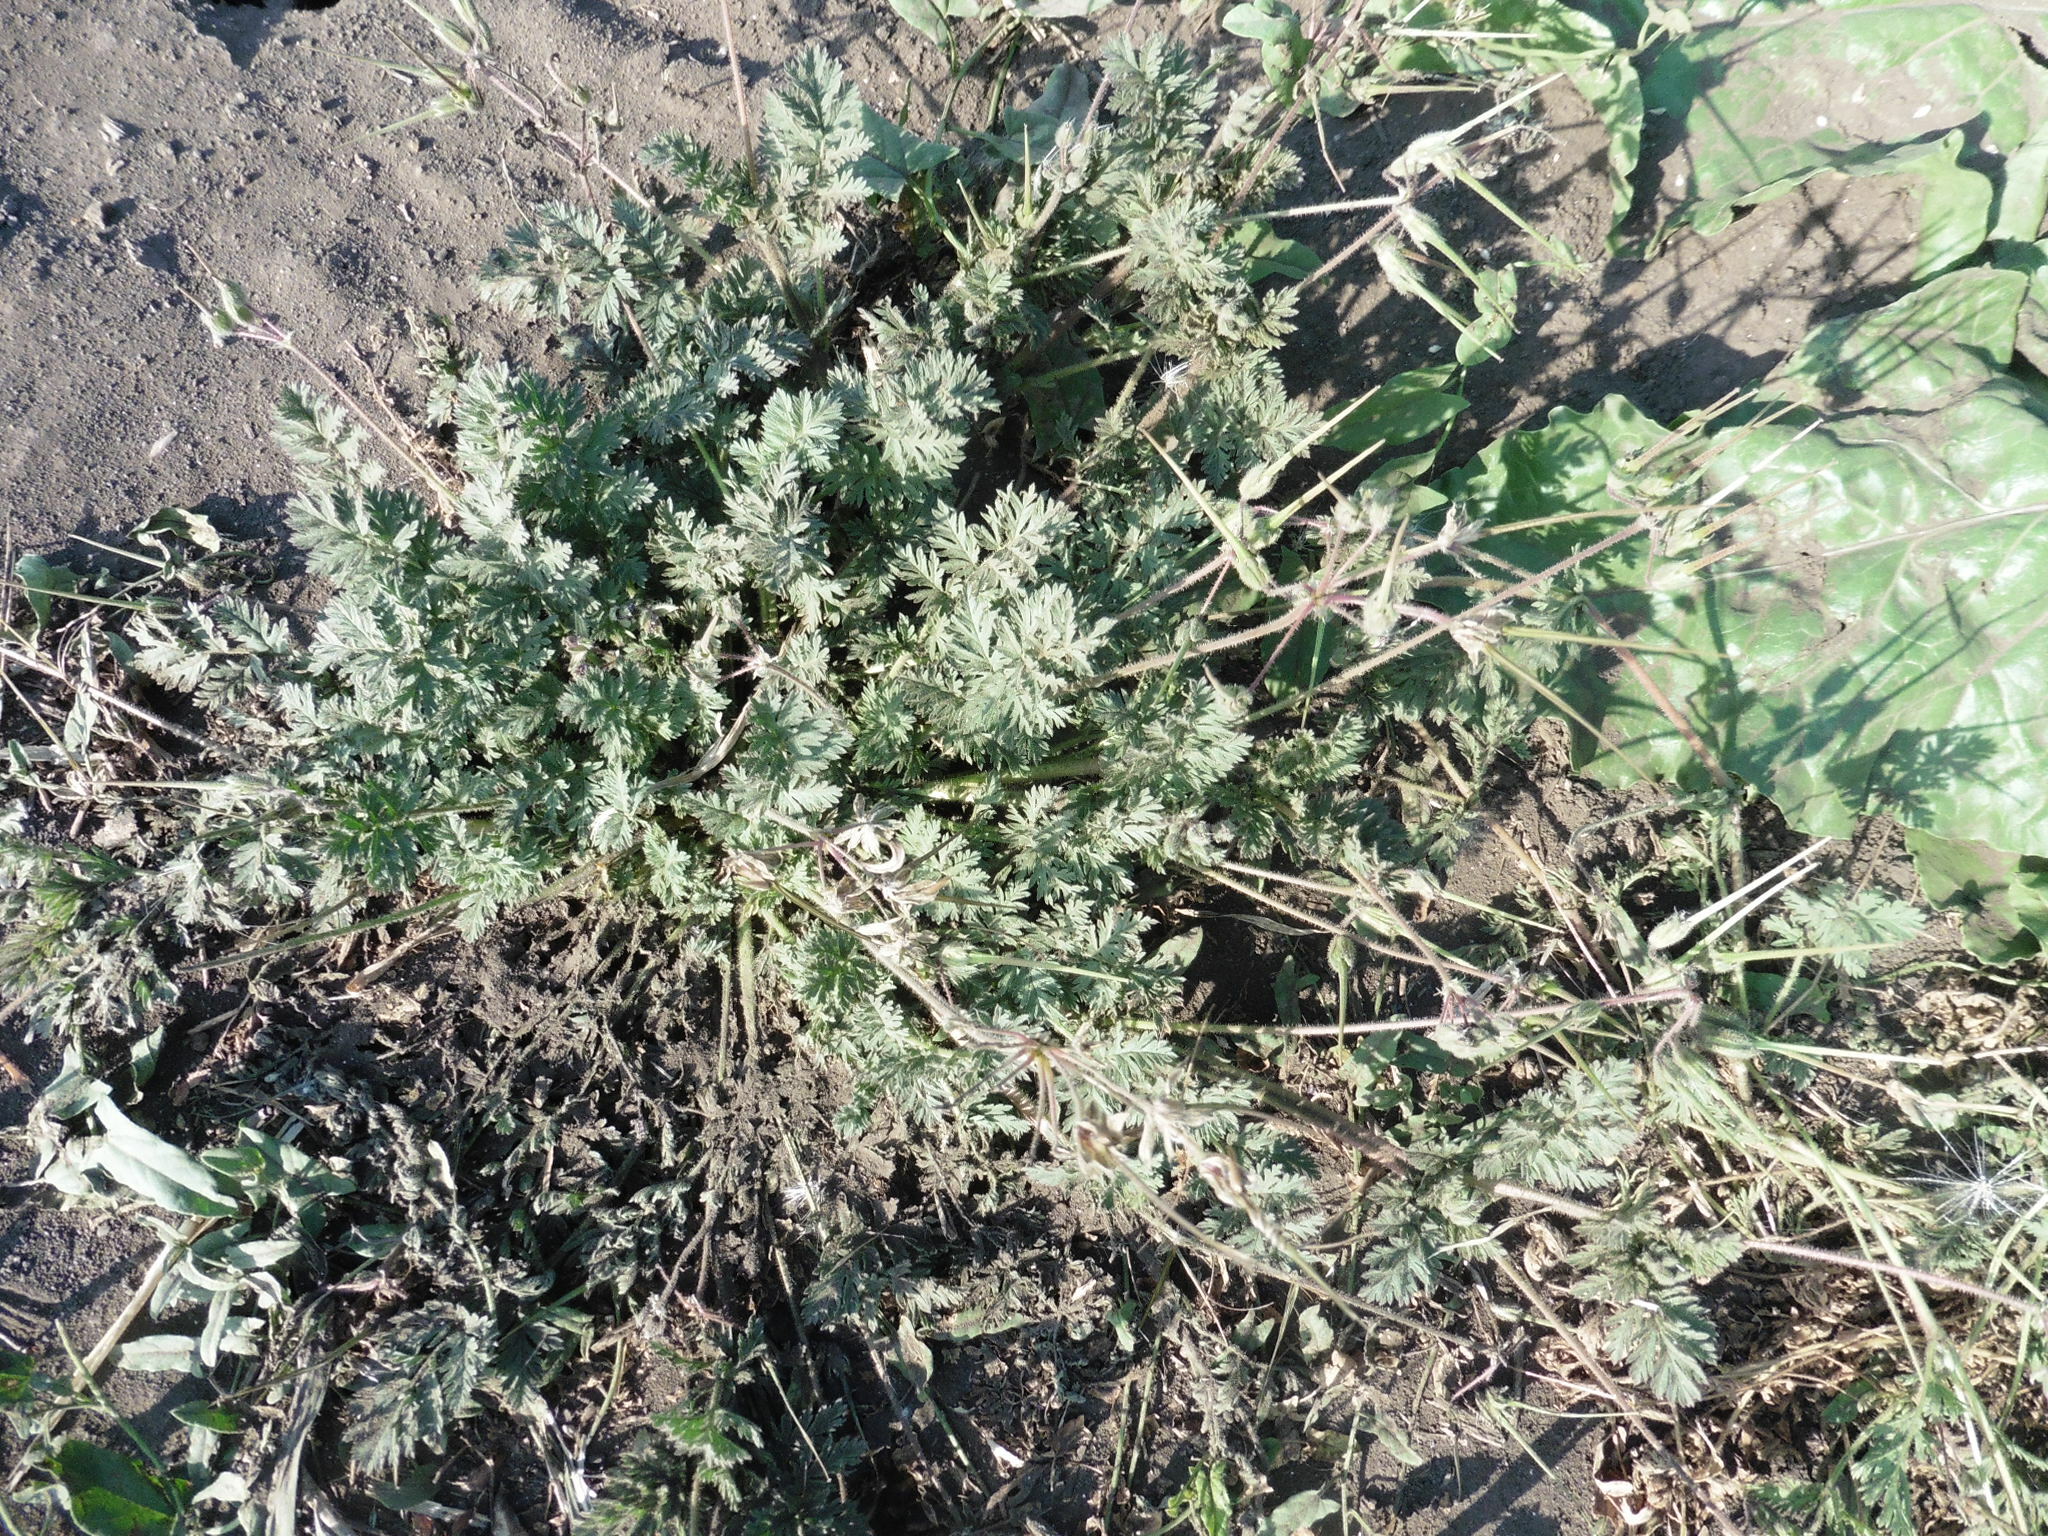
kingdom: Plantae
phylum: Tracheophyta
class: Magnoliopsida
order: Geraniales
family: Geraniaceae
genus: Erodium
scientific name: Erodium cicutarium
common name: Common stork's-bill
